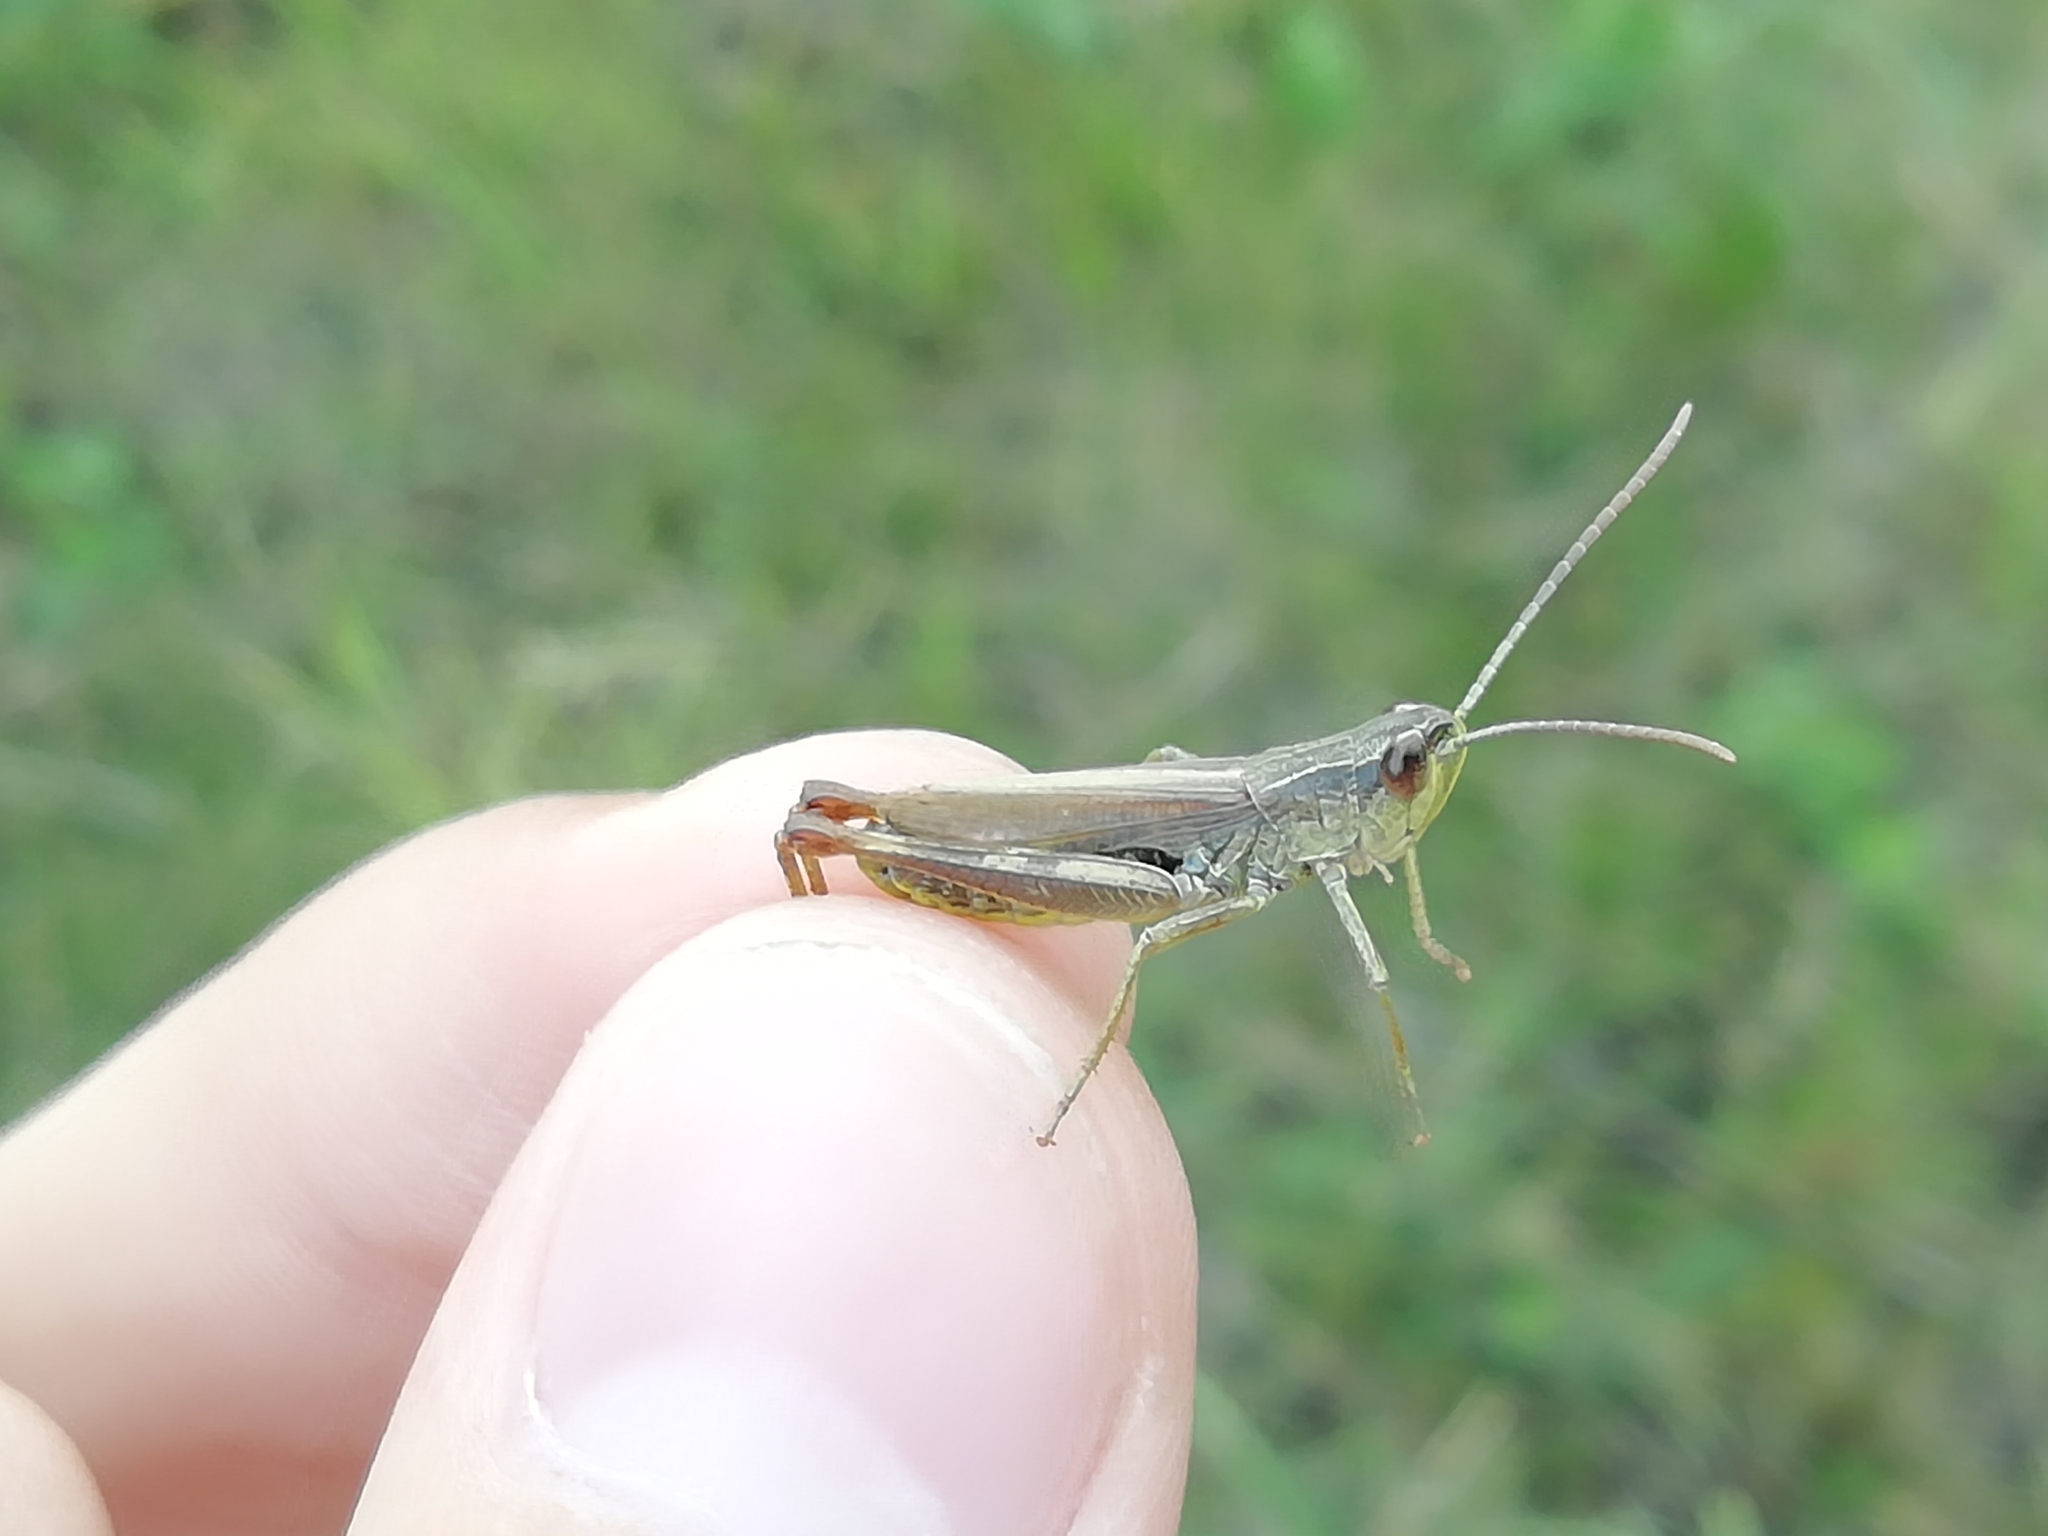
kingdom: Animalia
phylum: Arthropoda
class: Insecta
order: Orthoptera
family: Acrididae
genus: Pseudochorthippus
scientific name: Pseudochorthippus parallelus
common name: Meadow grasshopper
